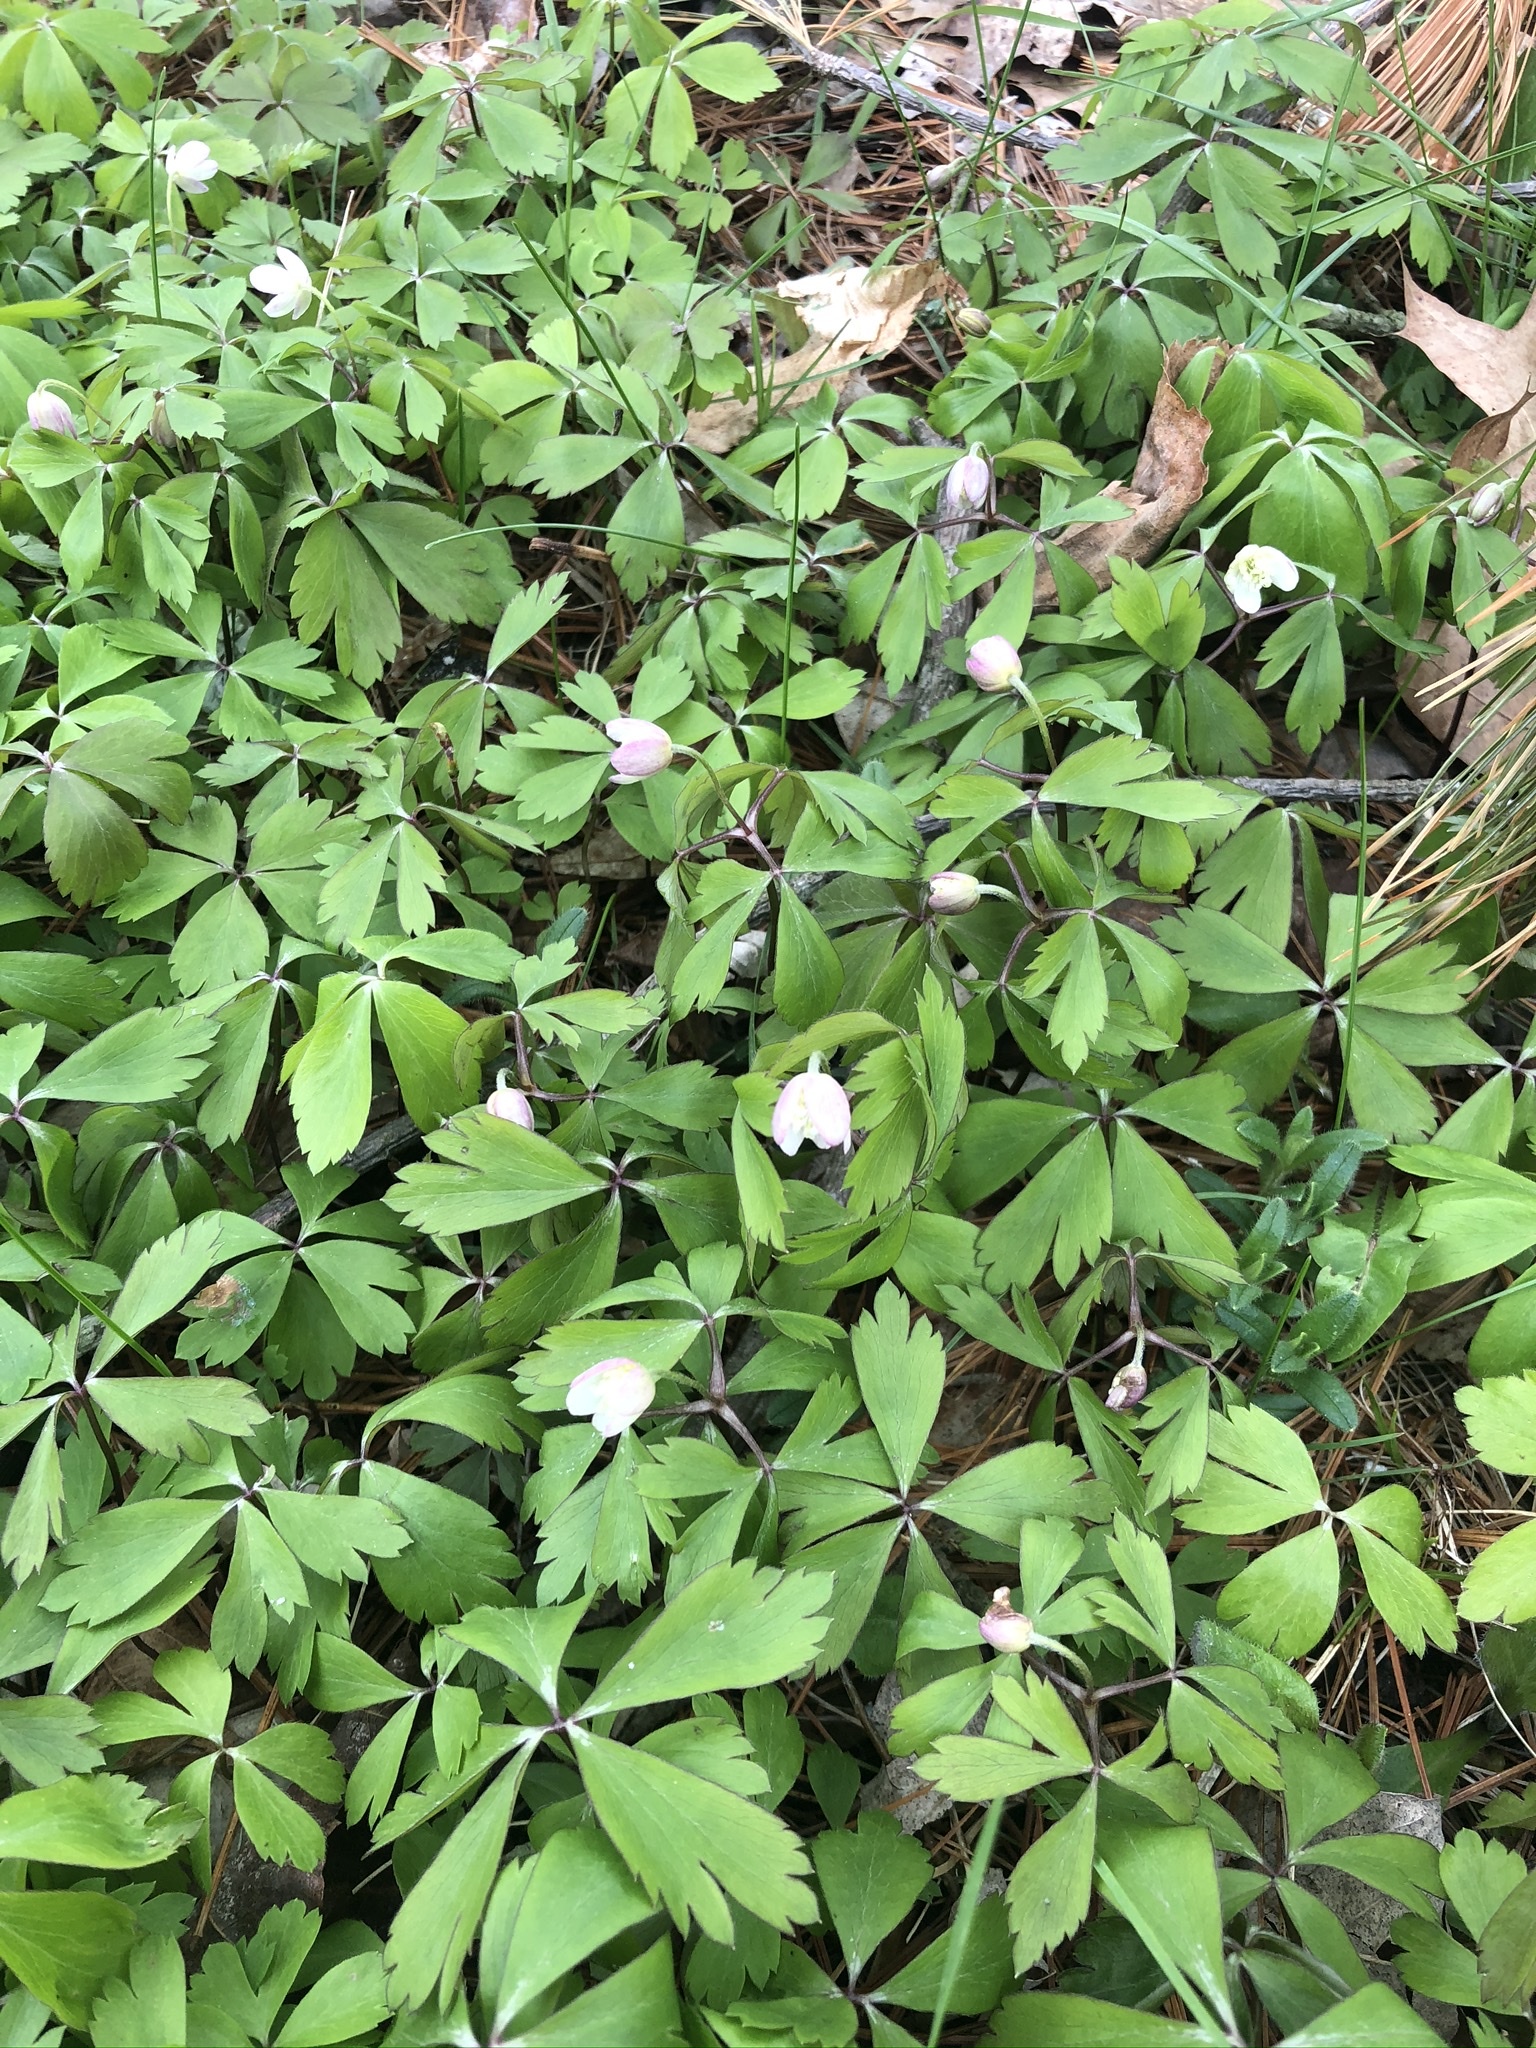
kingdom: Plantae
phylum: Tracheophyta
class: Magnoliopsida
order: Ranunculales
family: Ranunculaceae
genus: Anemone
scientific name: Anemone quinquefolia
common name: Wood anemone
